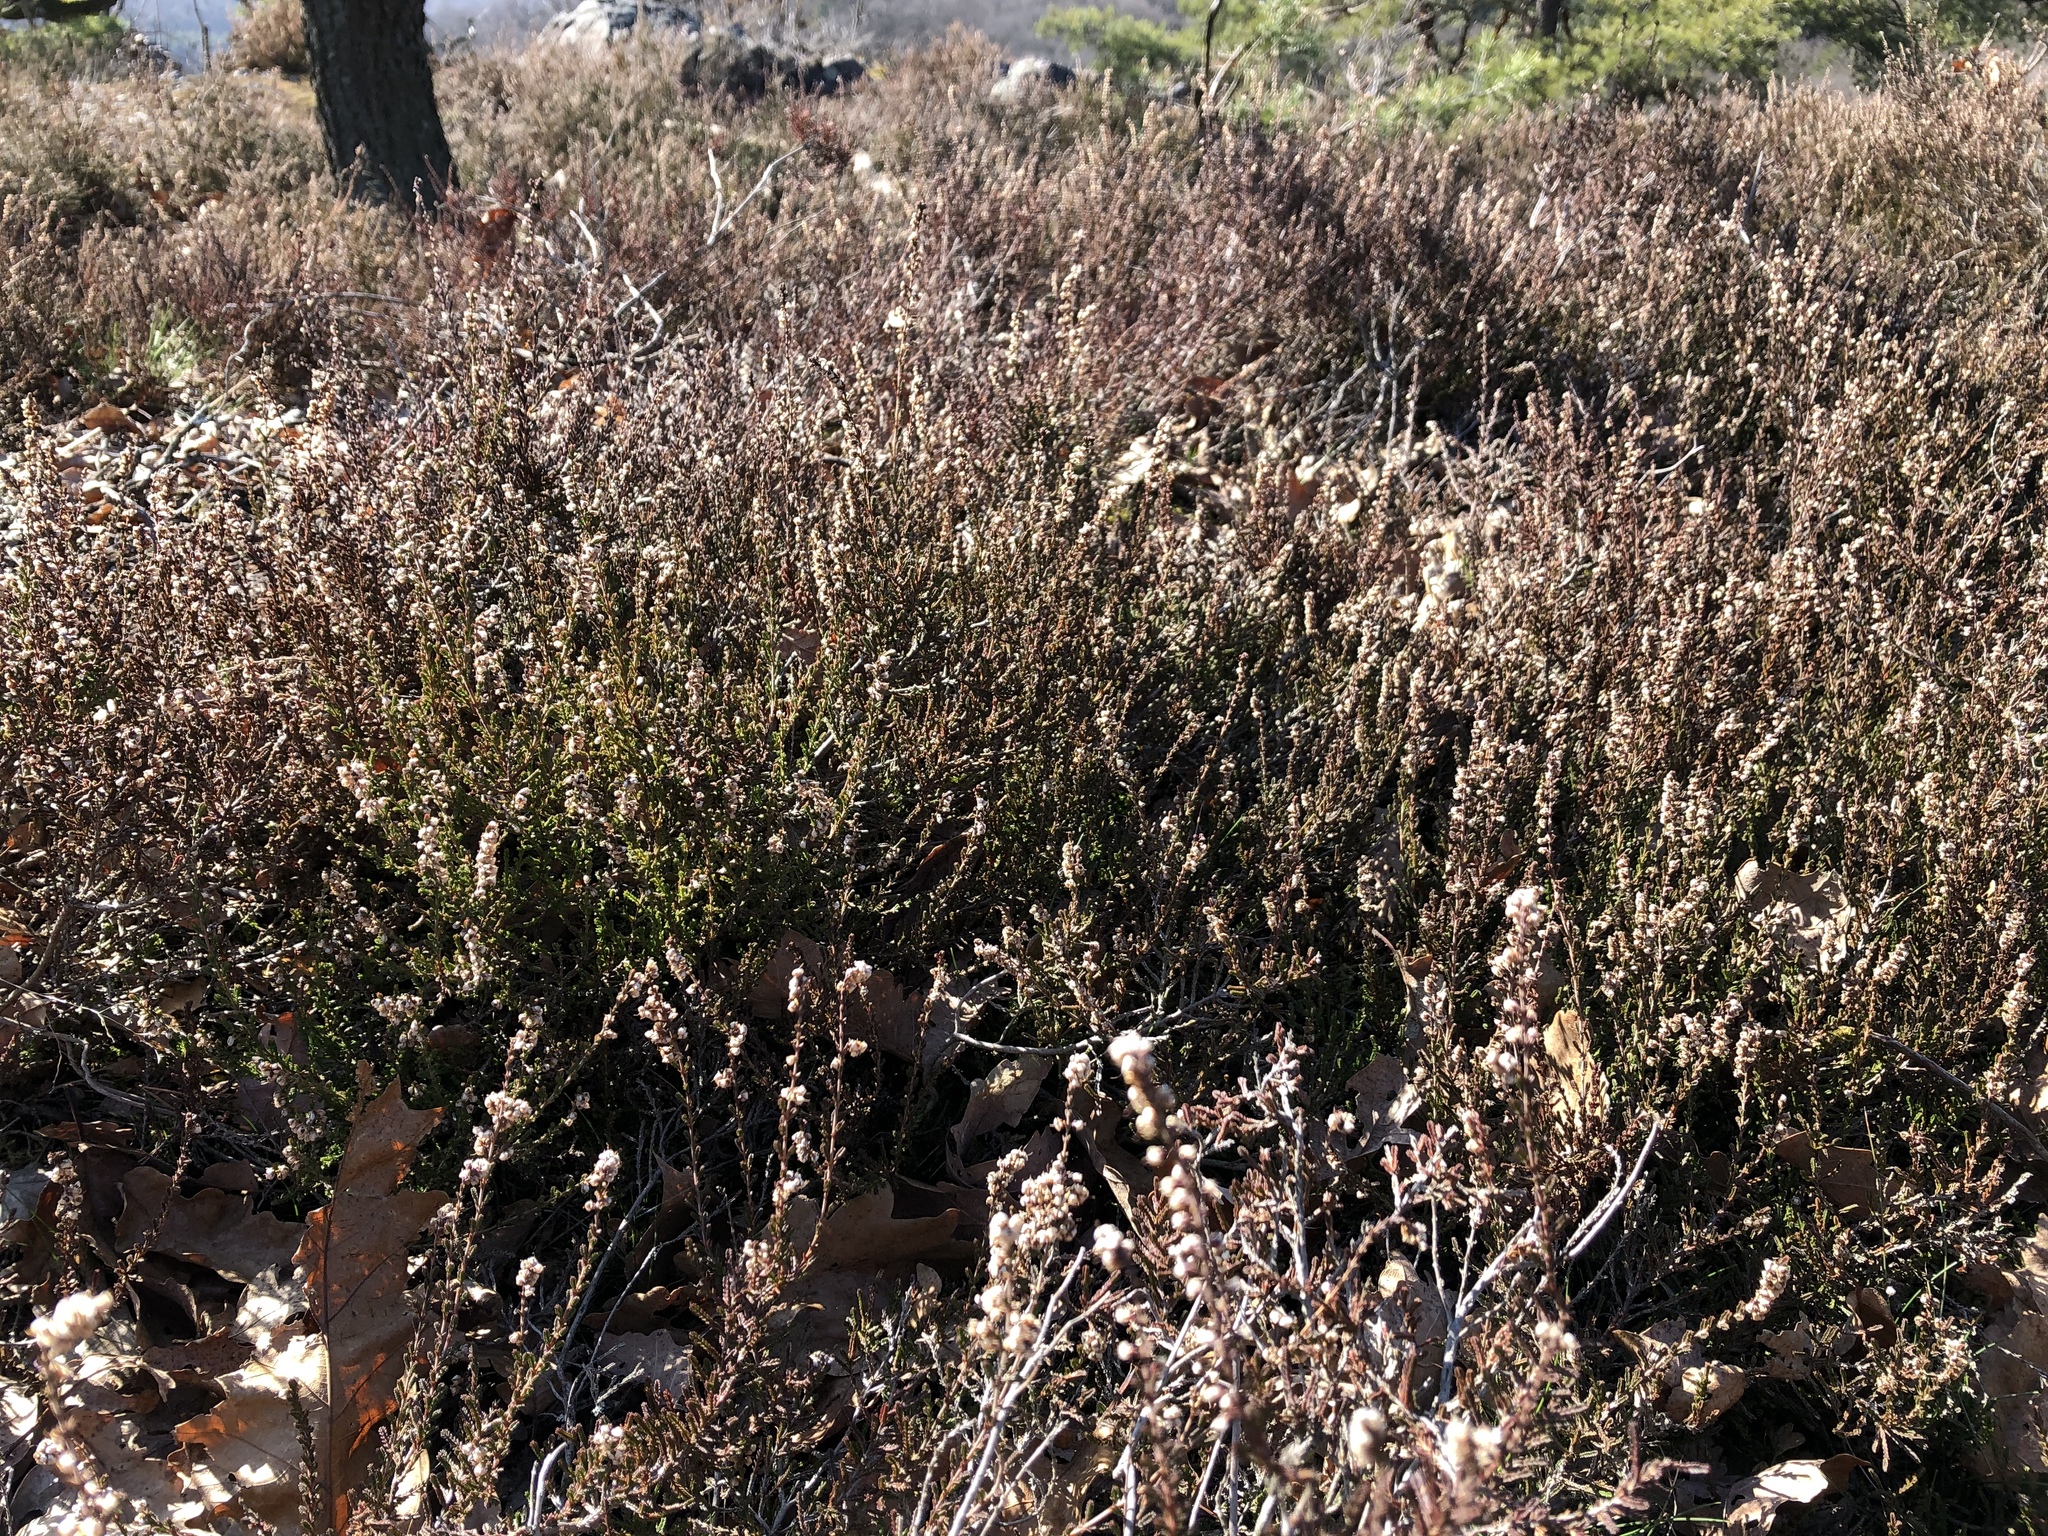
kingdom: Plantae
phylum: Tracheophyta
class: Magnoliopsida
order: Ericales
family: Ericaceae
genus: Calluna
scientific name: Calluna vulgaris
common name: Heather
